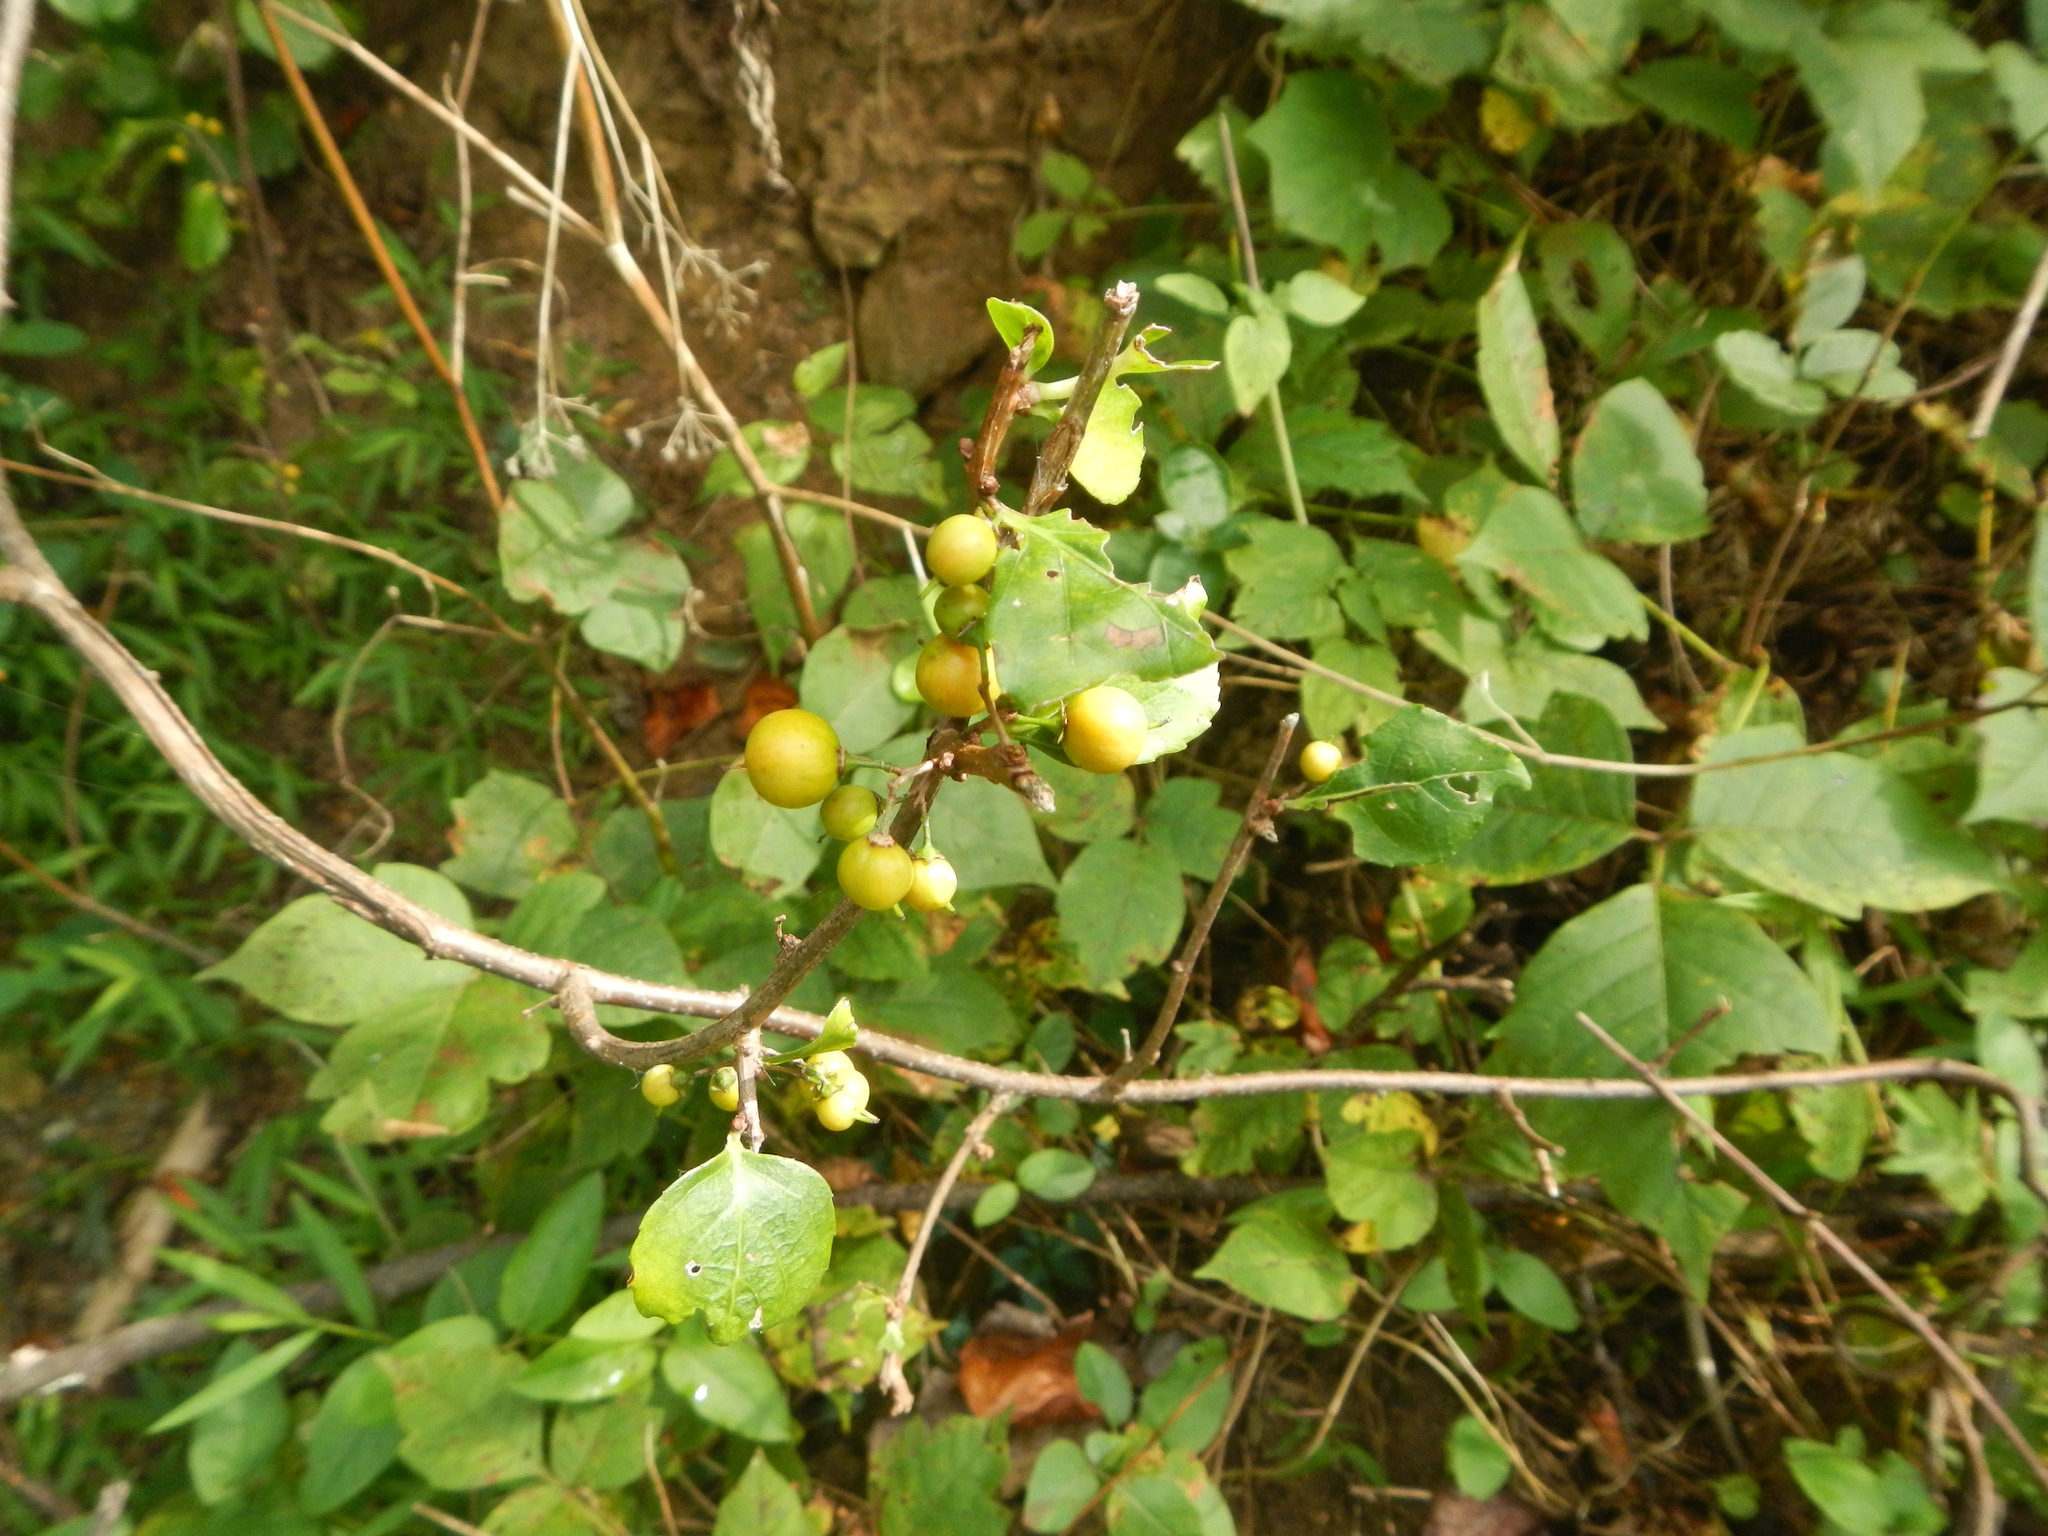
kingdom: Plantae
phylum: Tracheophyta
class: Magnoliopsida
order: Celastrales
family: Celastraceae
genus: Celastrus
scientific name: Celastrus orbiculatus
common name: Oriental bittersweet
